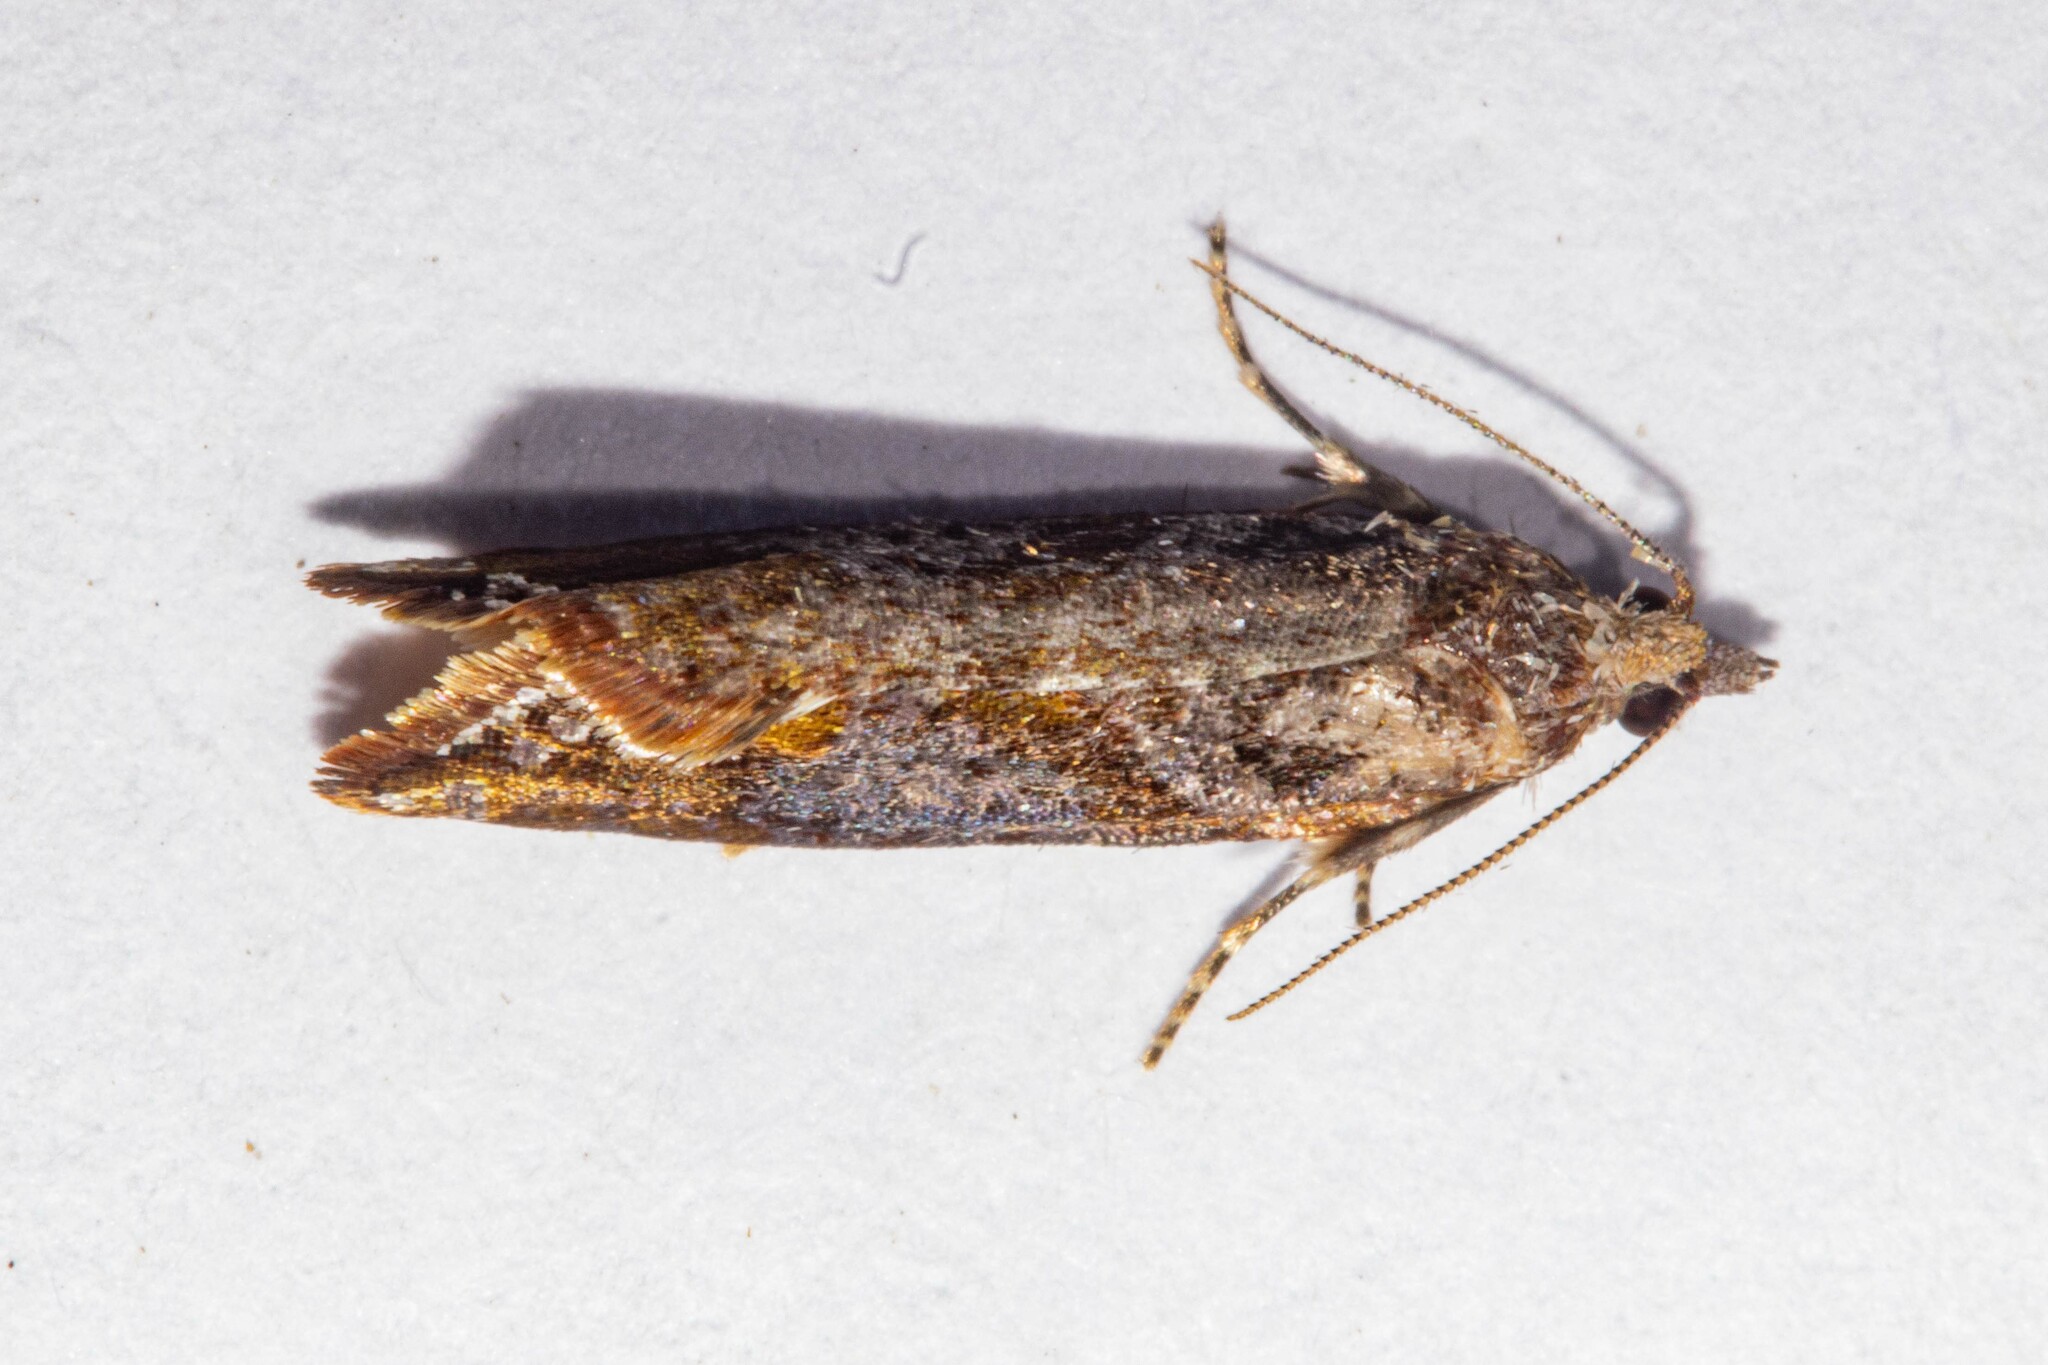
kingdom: Animalia
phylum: Arthropoda
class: Insecta
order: Lepidoptera
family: Tortricidae
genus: Pyrgotis
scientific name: Pyrgotis plagiatana
